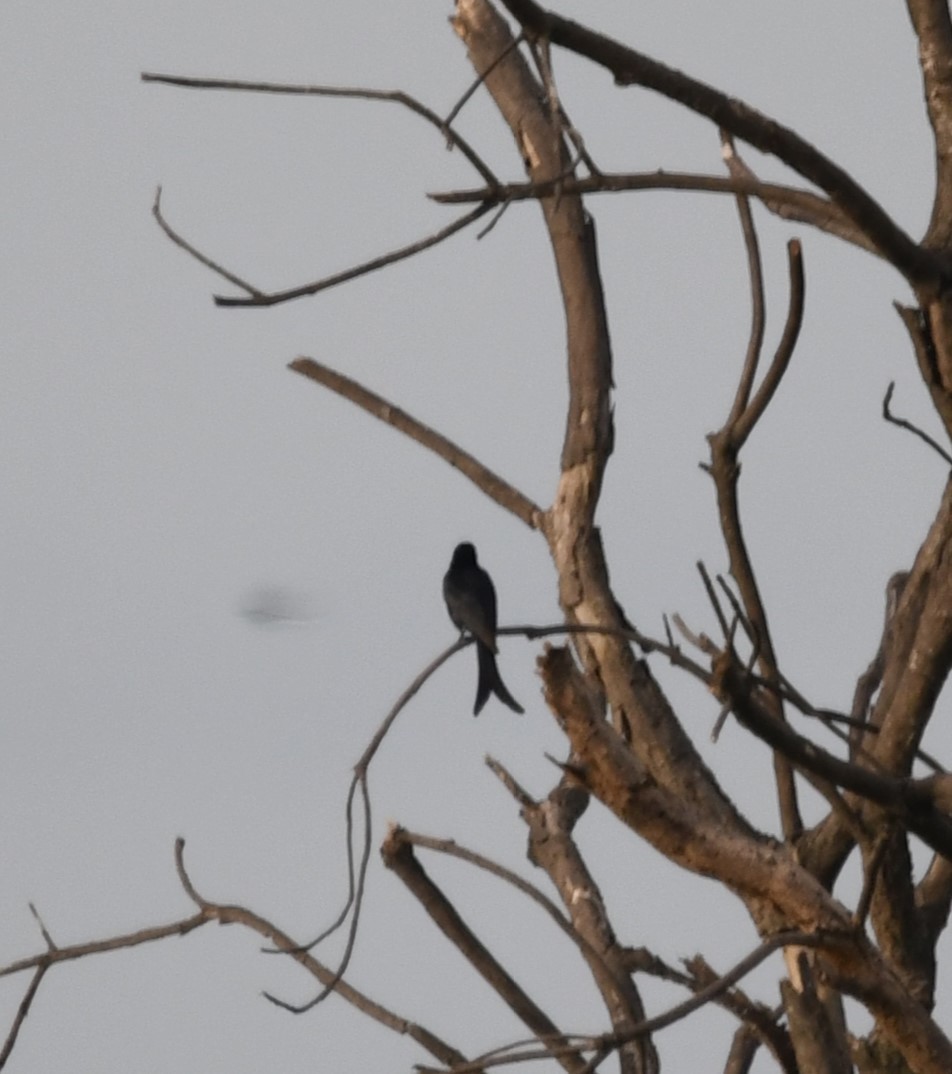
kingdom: Animalia
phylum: Chordata
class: Aves
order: Passeriformes
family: Dicruridae
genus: Dicrurus
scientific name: Dicrurus macrocercus
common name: Black drongo
